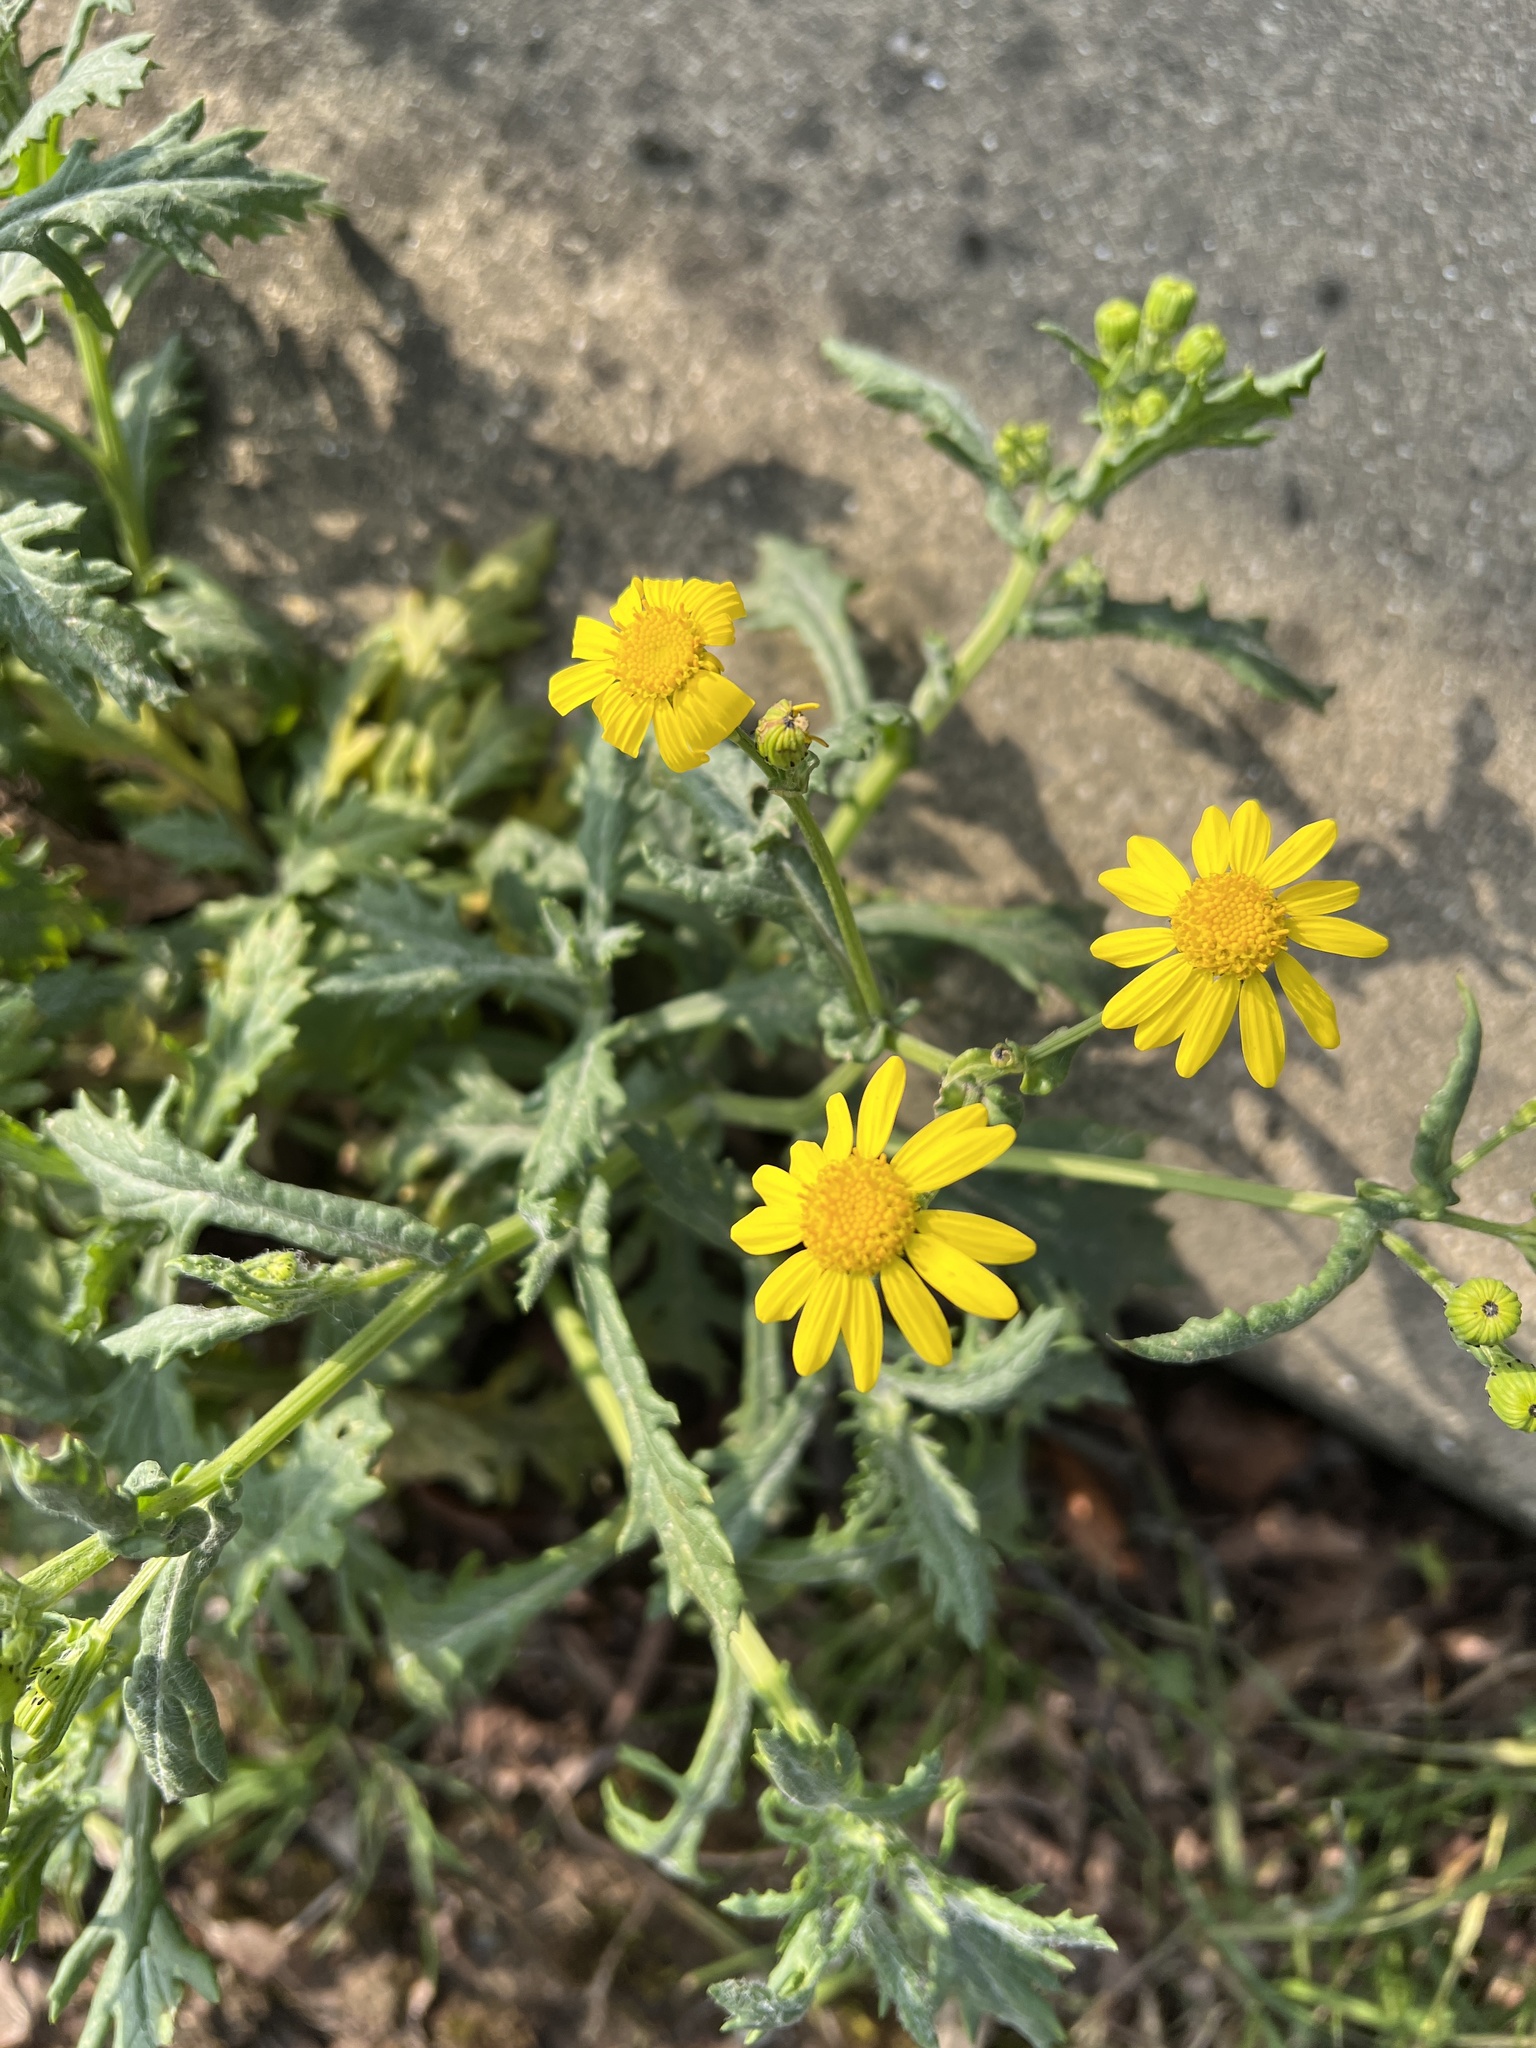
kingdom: Plantae
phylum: Tracheophyta
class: Magnoliopsida
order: Asterales
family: Asteraceae
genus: Senecio
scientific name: Senecio squalidus
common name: Oxford ragwort
